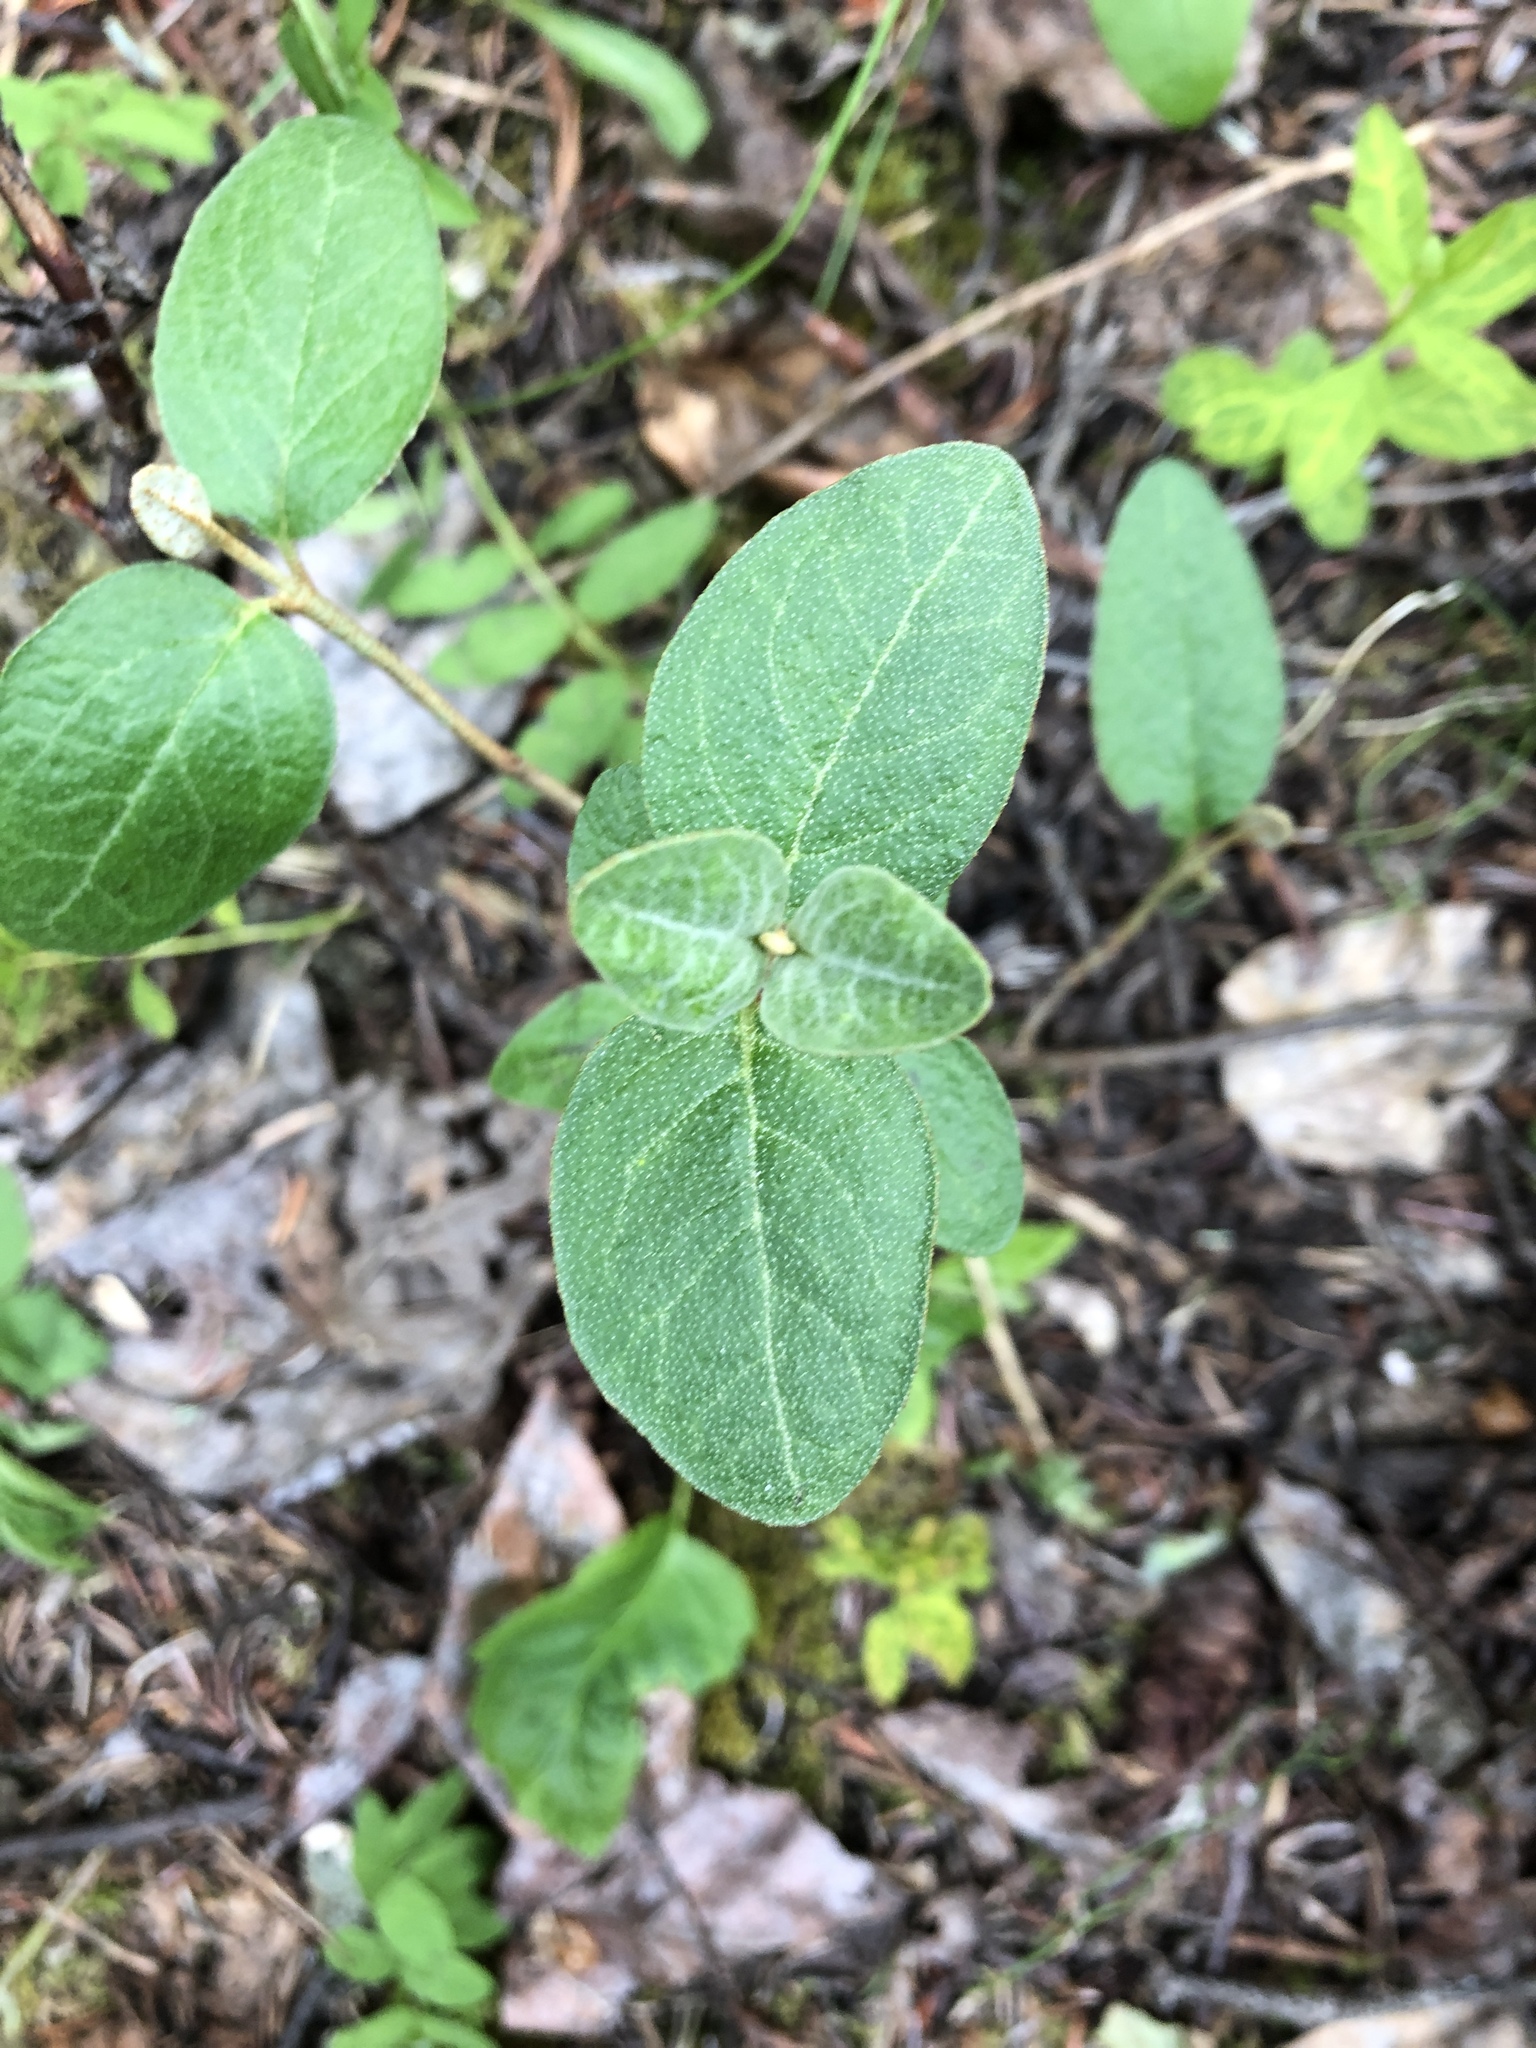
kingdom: Plantae
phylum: Tracheophyta
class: Magnoliopsida
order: Rosales
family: Elaeagnaceae
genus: Shepherdia
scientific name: Shepherdia canadensis
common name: Soapberry
